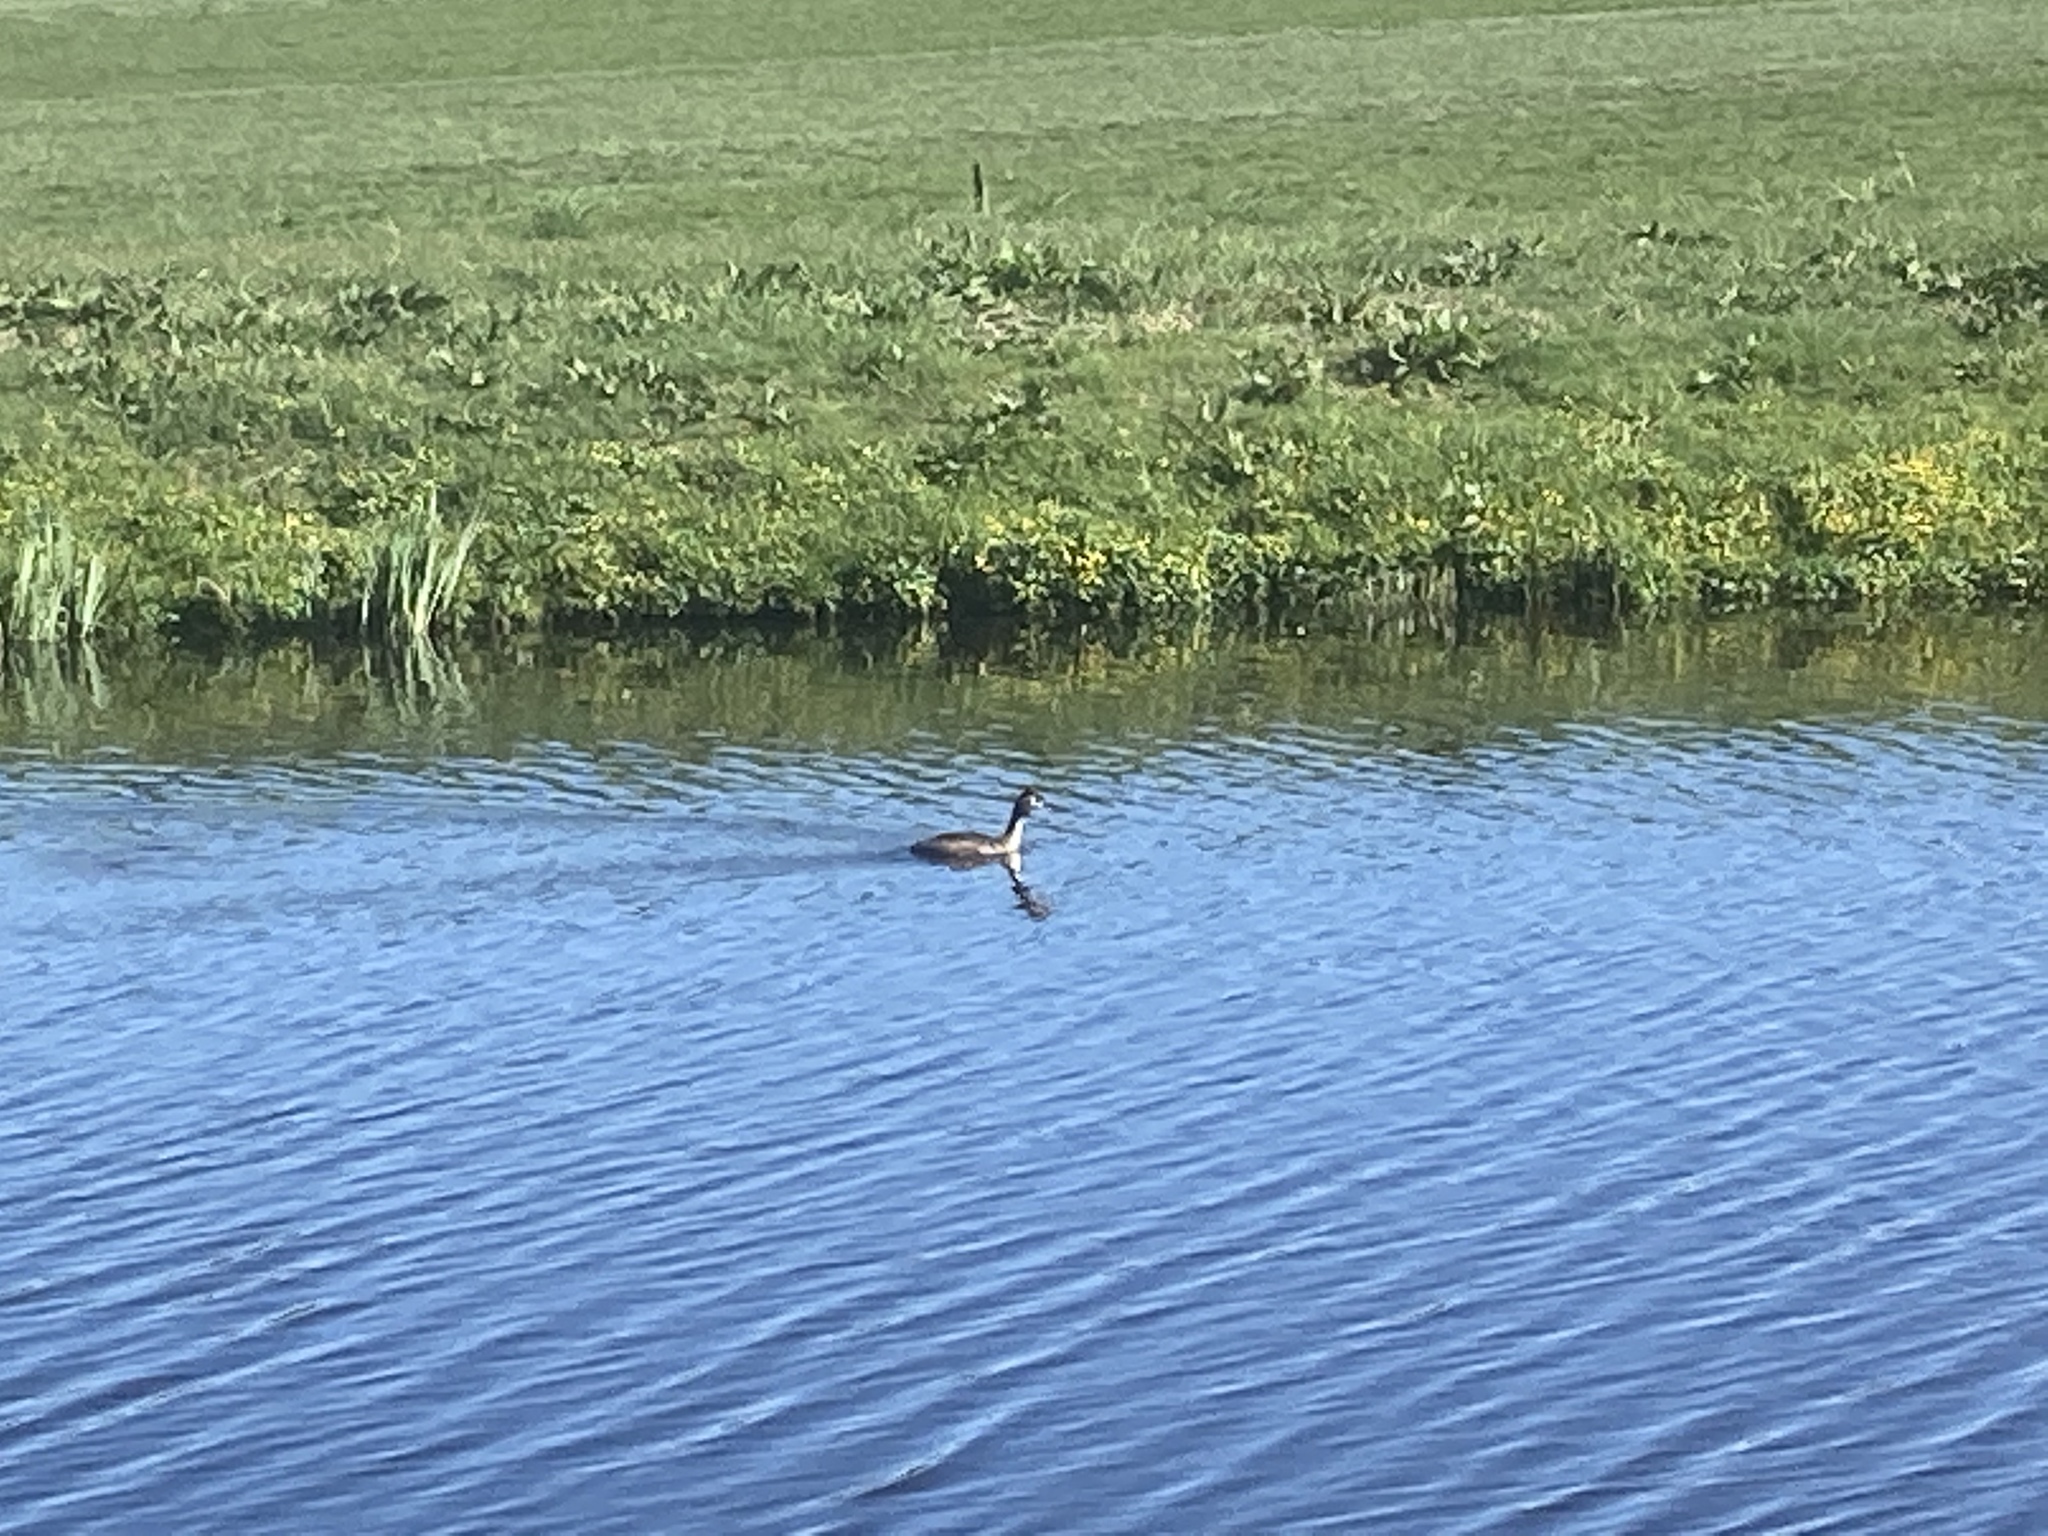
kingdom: Animalia
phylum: Chordata
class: Aves
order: Podicipediformes
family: Podicipedidae
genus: Podiceps
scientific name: Podiceps cristatus
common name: Great crested grebe
